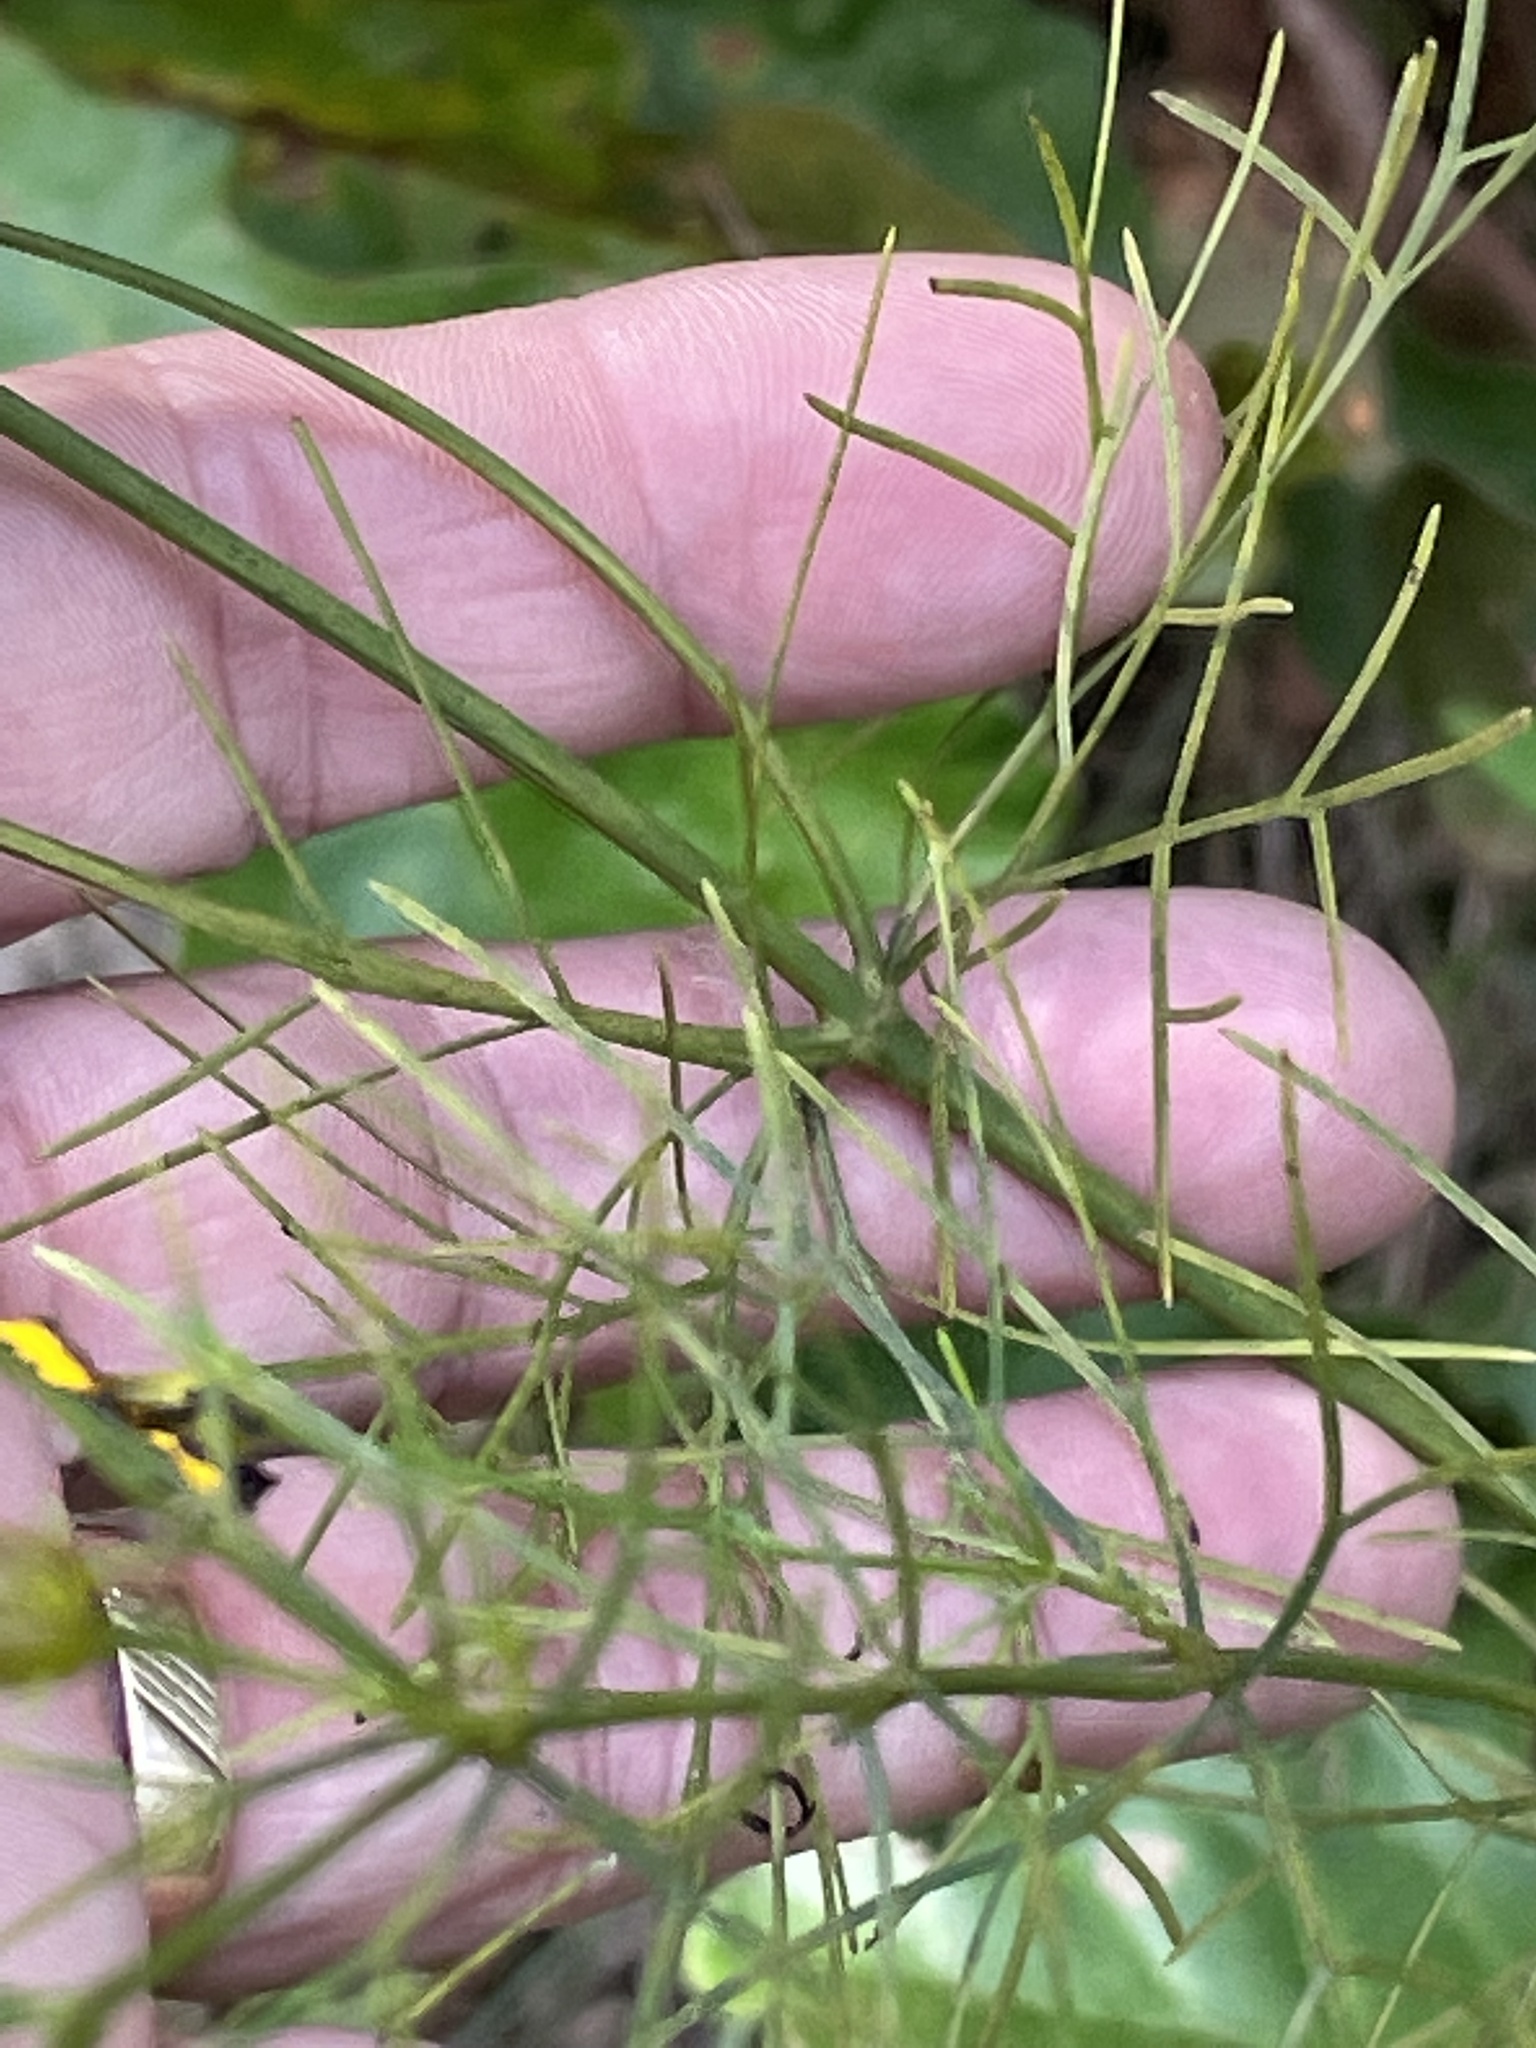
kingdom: Plantae
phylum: Tracheophyta
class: Magnoliopsida
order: Asterales
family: Asteraceae
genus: Coreopsis
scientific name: Coreopsis verticillata
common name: Whorled tickseed
